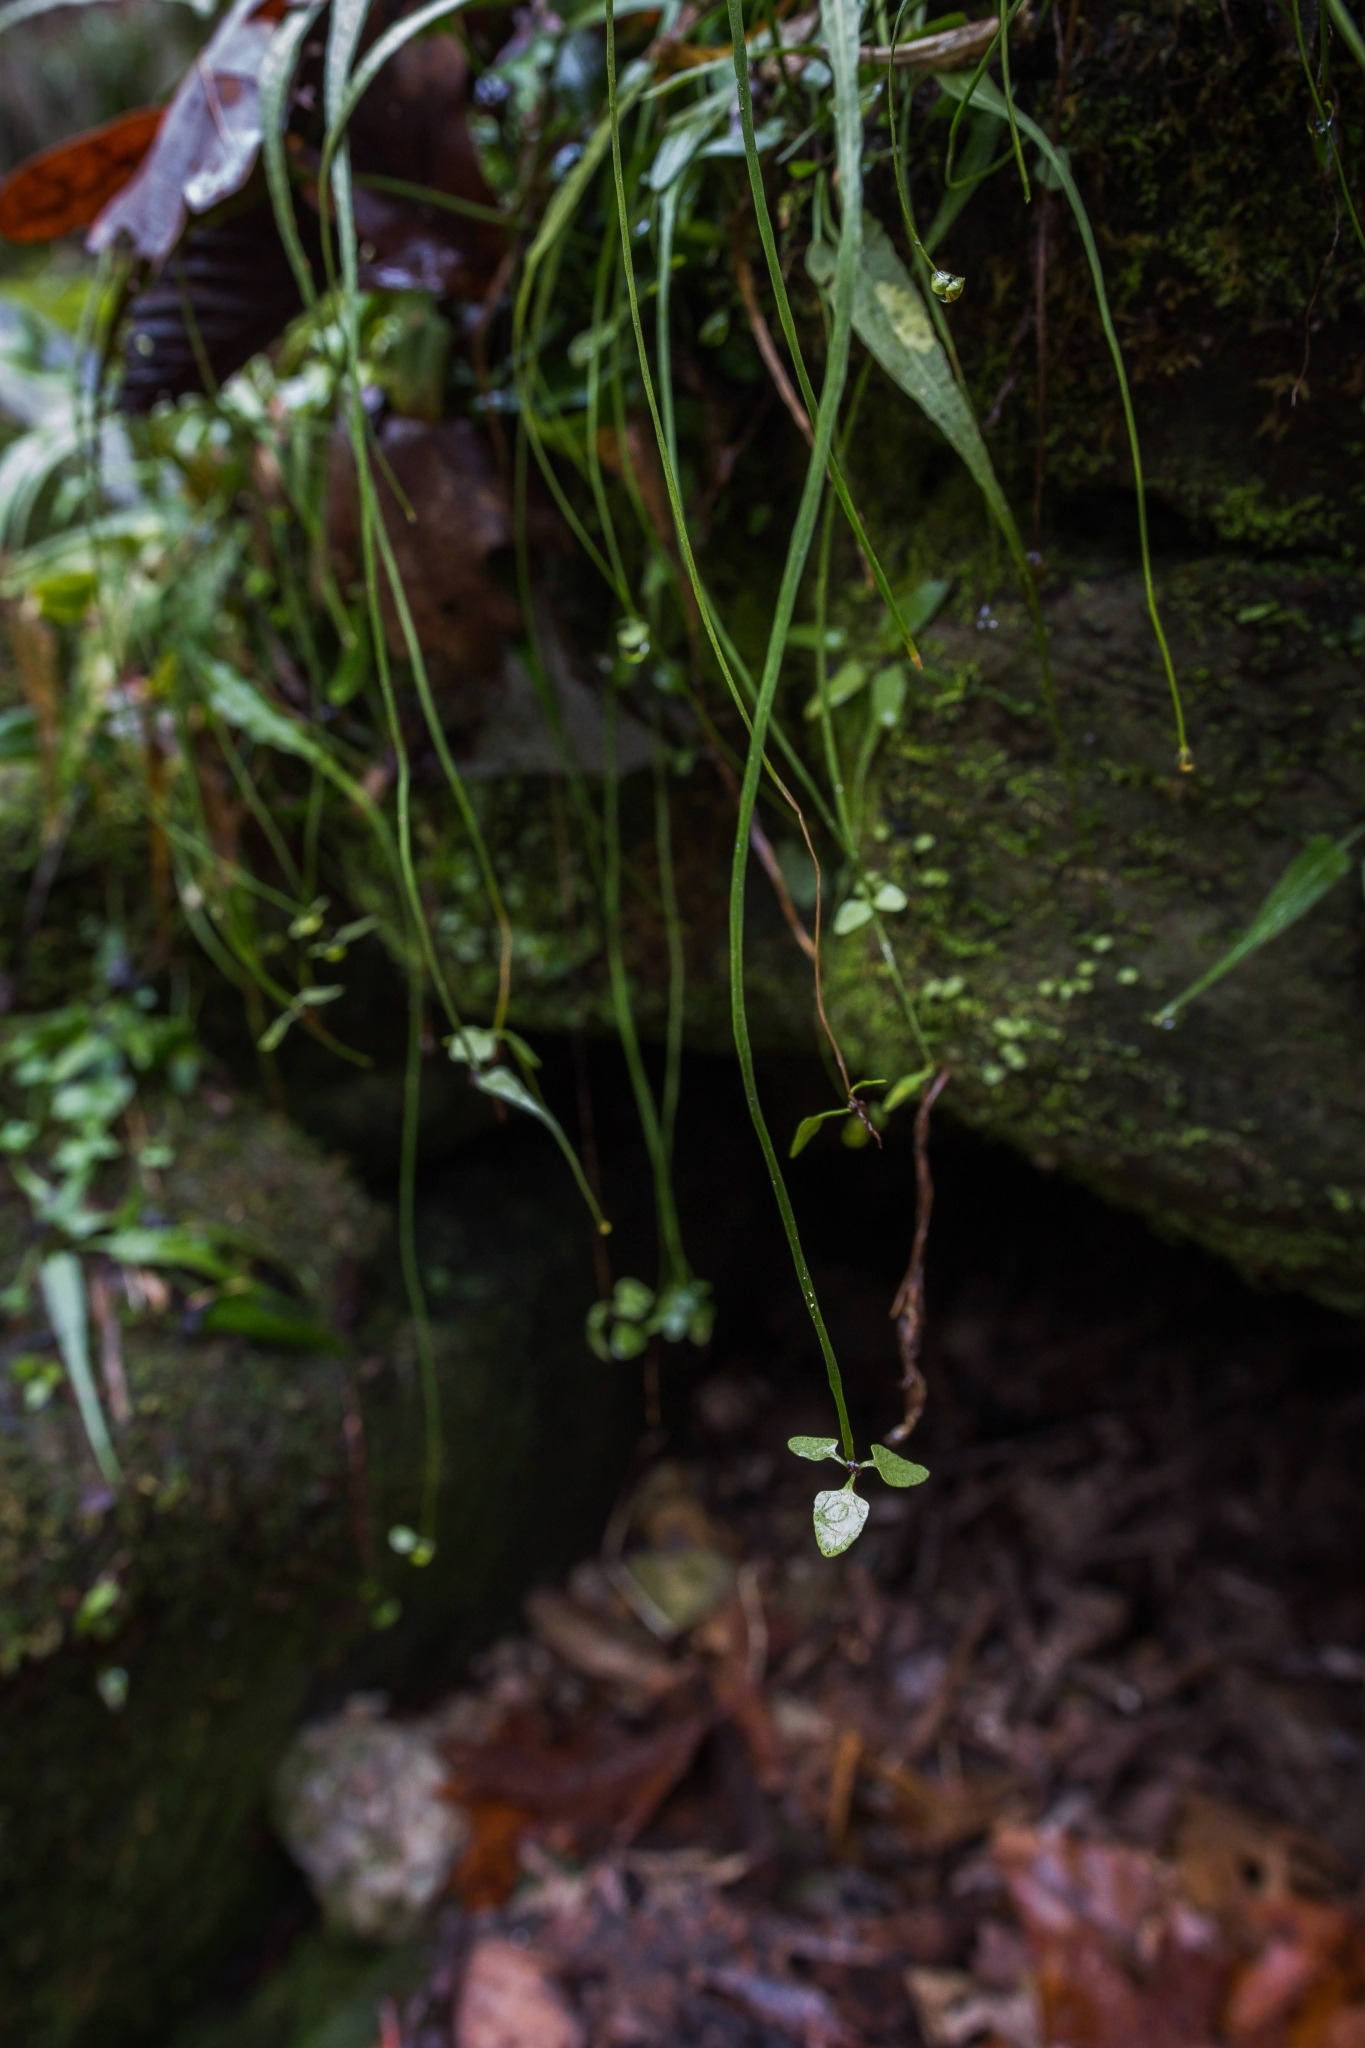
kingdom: Plantae
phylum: Tracheophyta
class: Polypodiopsida
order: Polypodiales
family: Aspleniaceae
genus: Asplenium
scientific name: Asplenium rhizophyllum
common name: Walking fern
